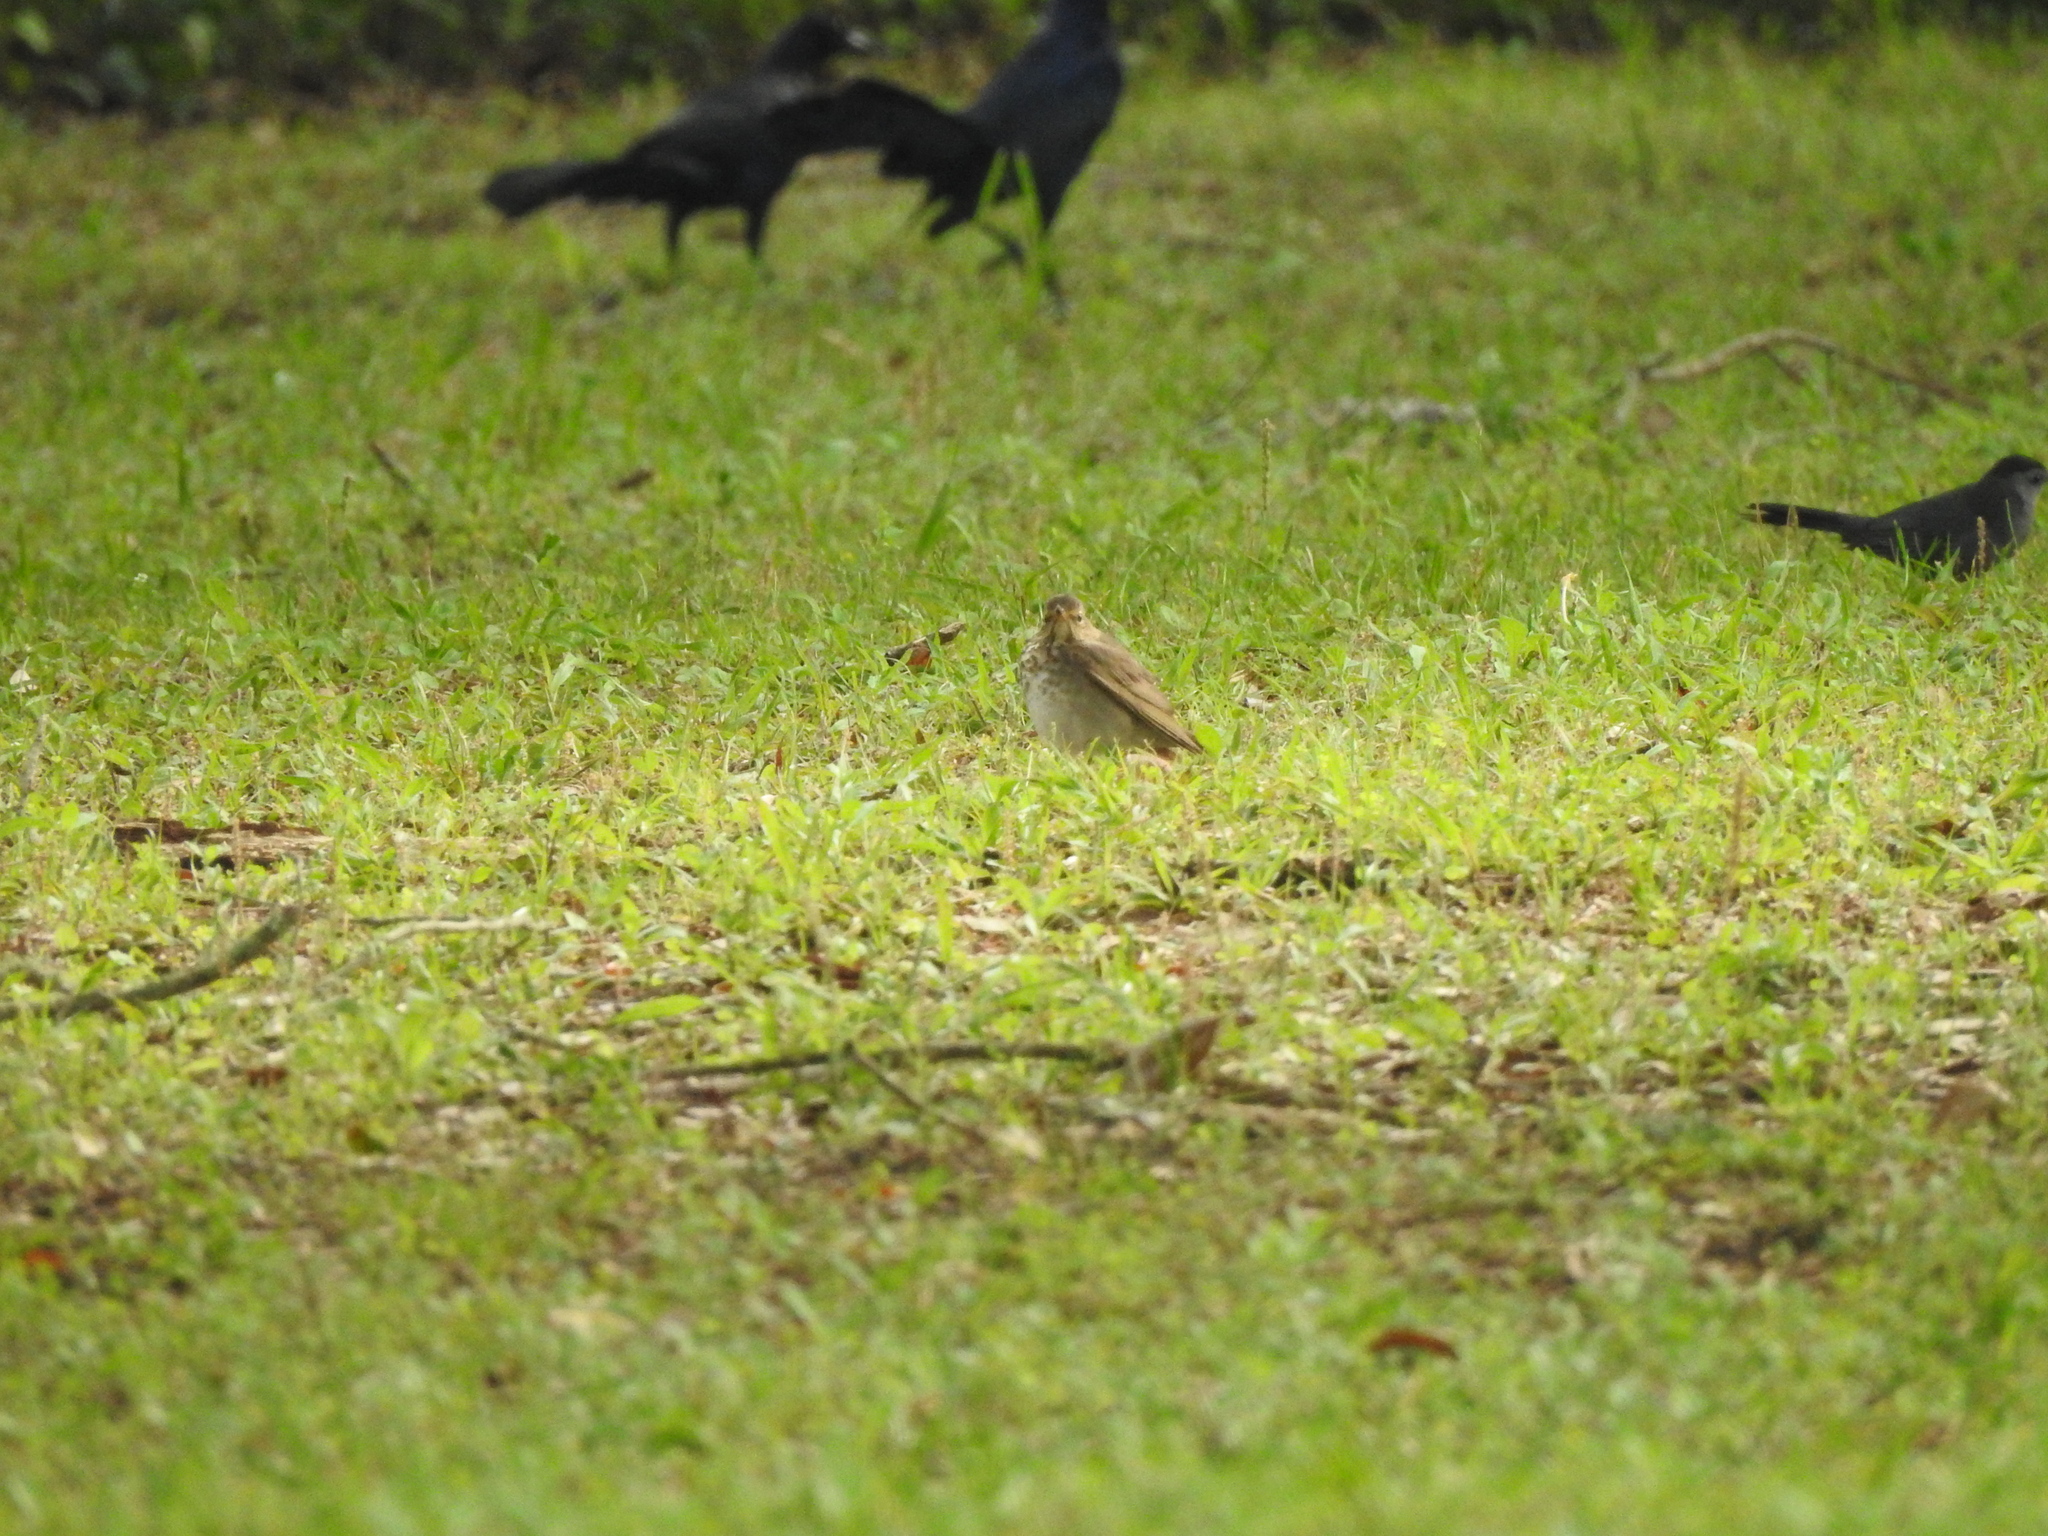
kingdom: Animalia
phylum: Chordata
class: Aves
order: Passeriformes
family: Turdidae
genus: Catharus
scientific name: Catharus ustulatus
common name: Swainson's thrush
